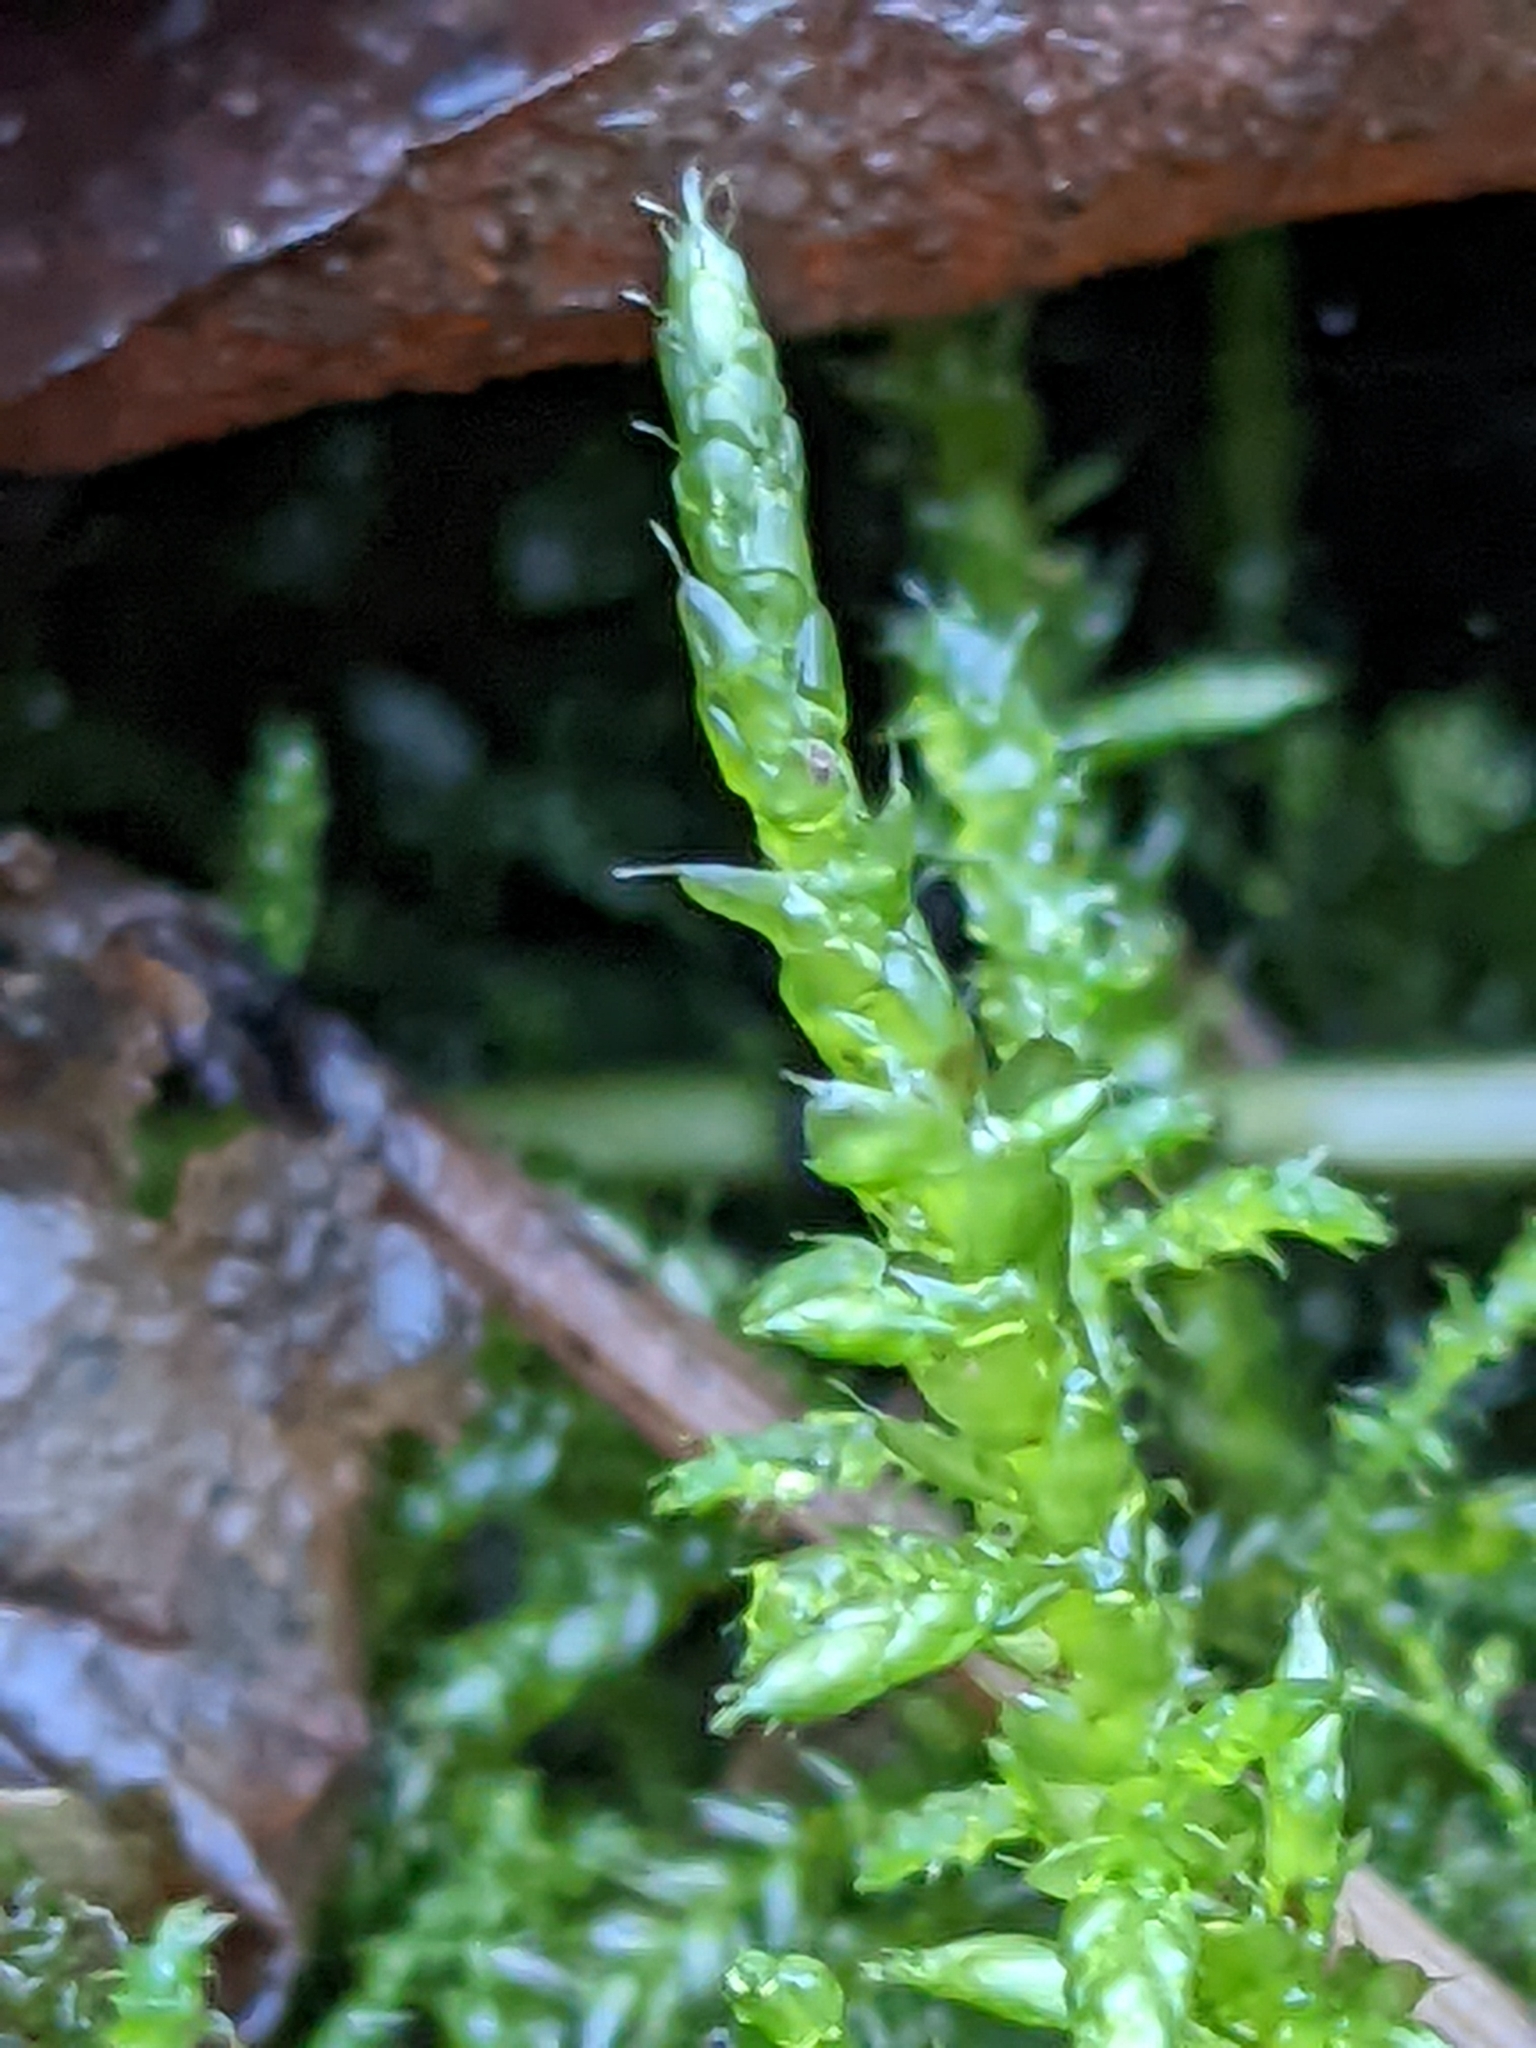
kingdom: Plantae
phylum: Bryophyta
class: Bryopsida
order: Hypnales
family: Brachytheciaceae
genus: Cirriphyllum
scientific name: Cirriphyllum piliferum
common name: Hair-pointed moss
